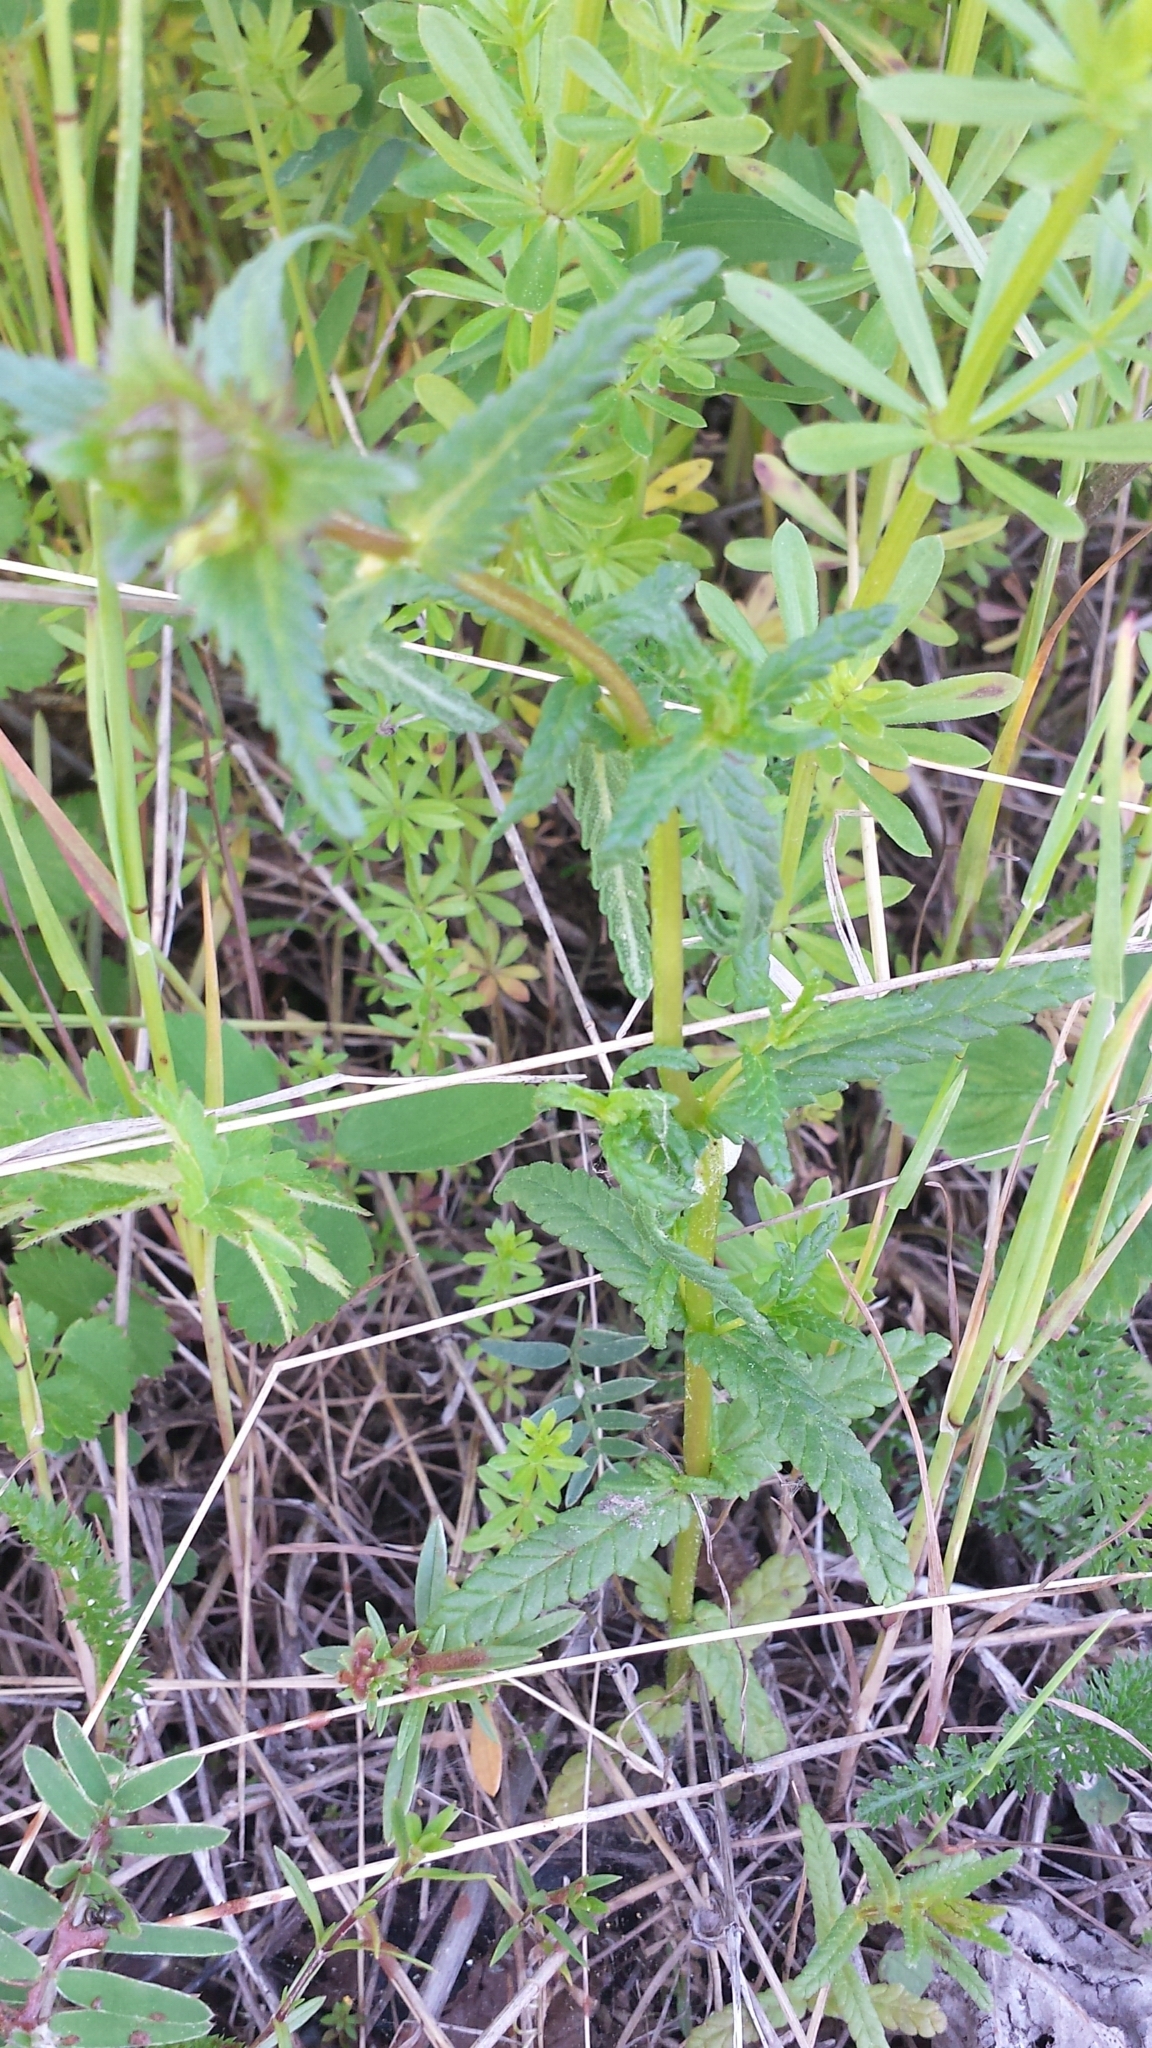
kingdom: Plantae
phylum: Tracheophyta
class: Magnoliopsida
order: Lamiales
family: Orobanchaceae
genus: Rhinanthus
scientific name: Rhinanthus minor
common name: Yellow-rattle
